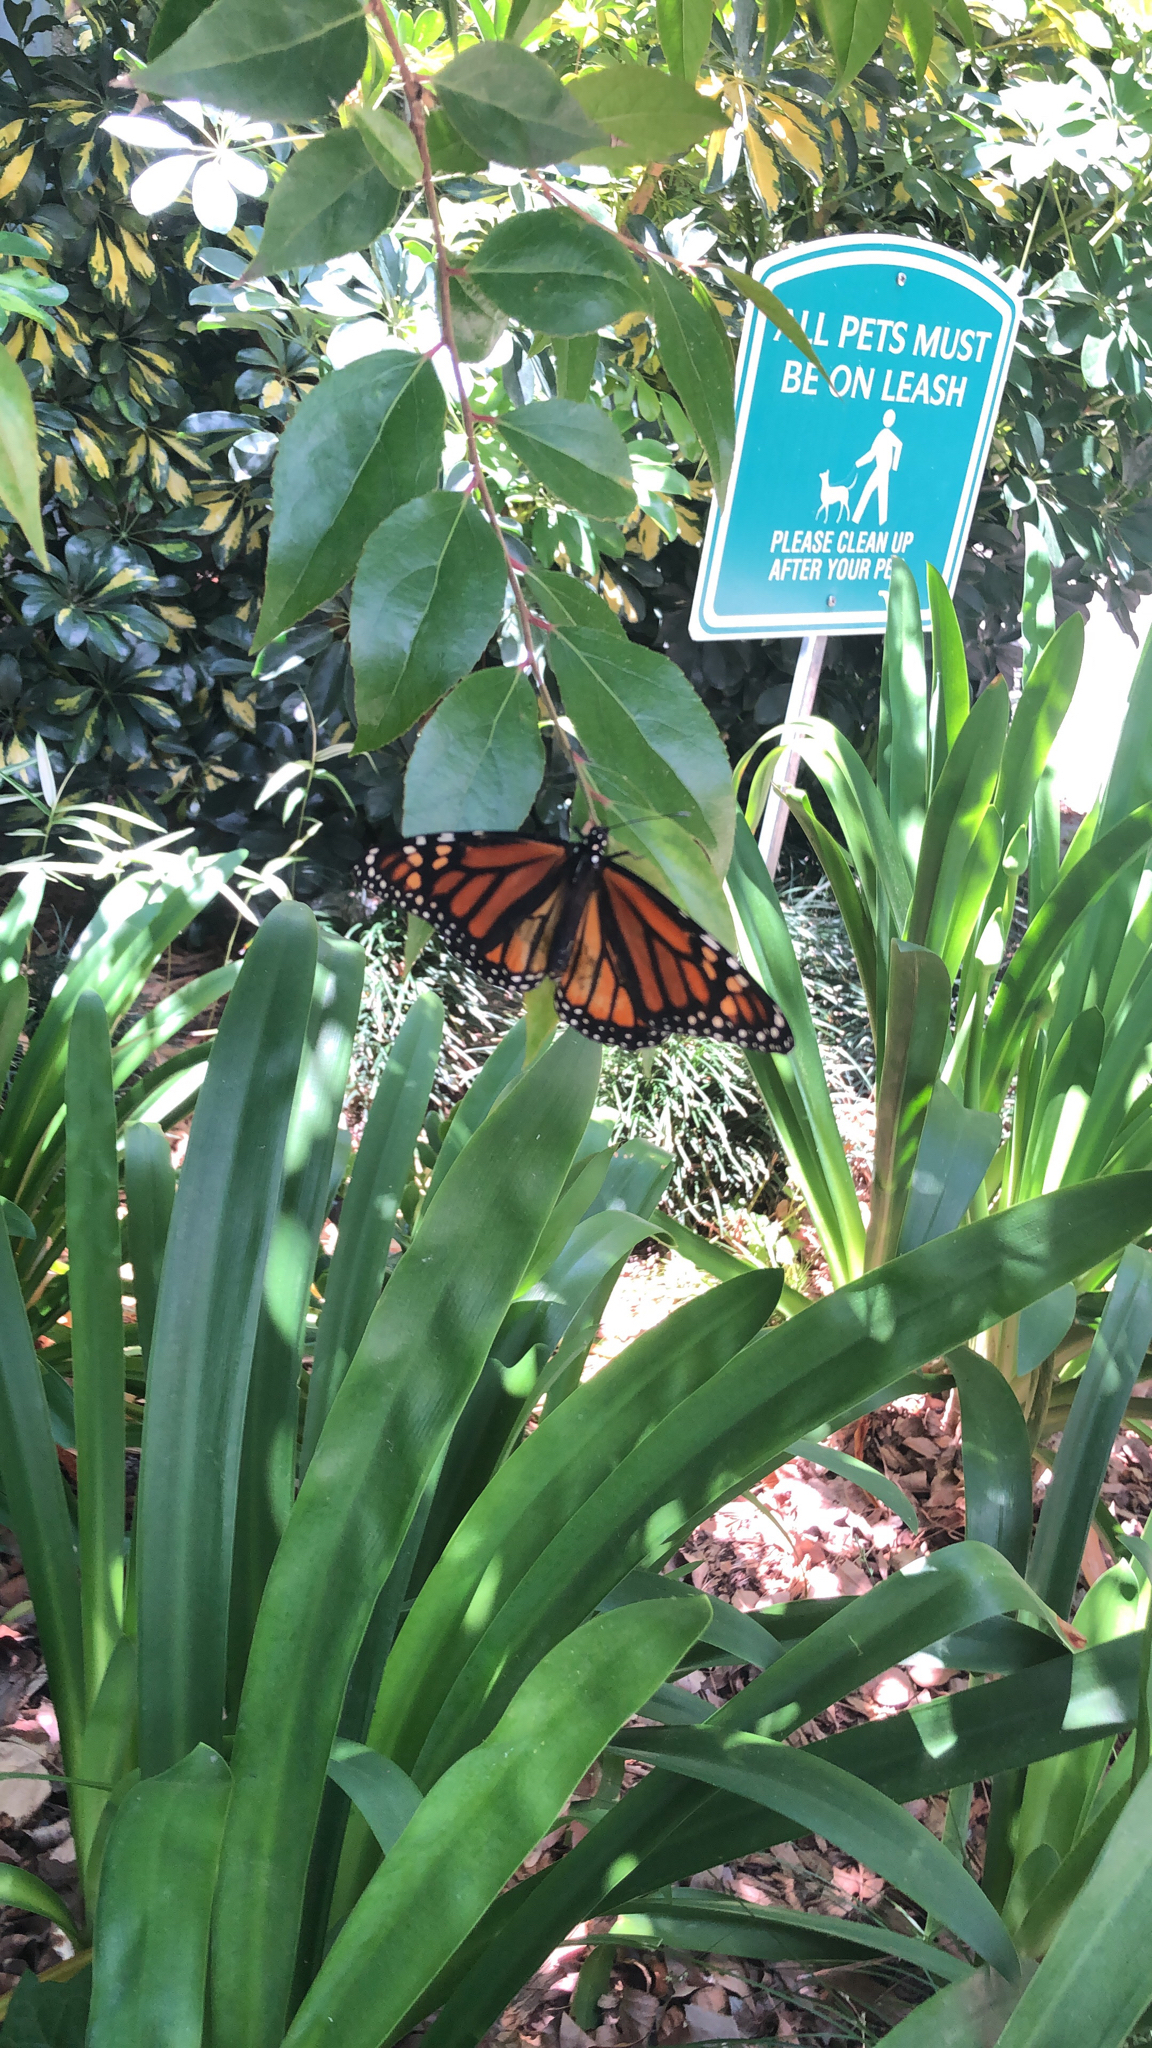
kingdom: Animalia
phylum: Arthropoda
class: Insecta
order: Lepidoptera
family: Nymphalidae
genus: Danaus
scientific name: Danaus plexippus
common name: Monarch
